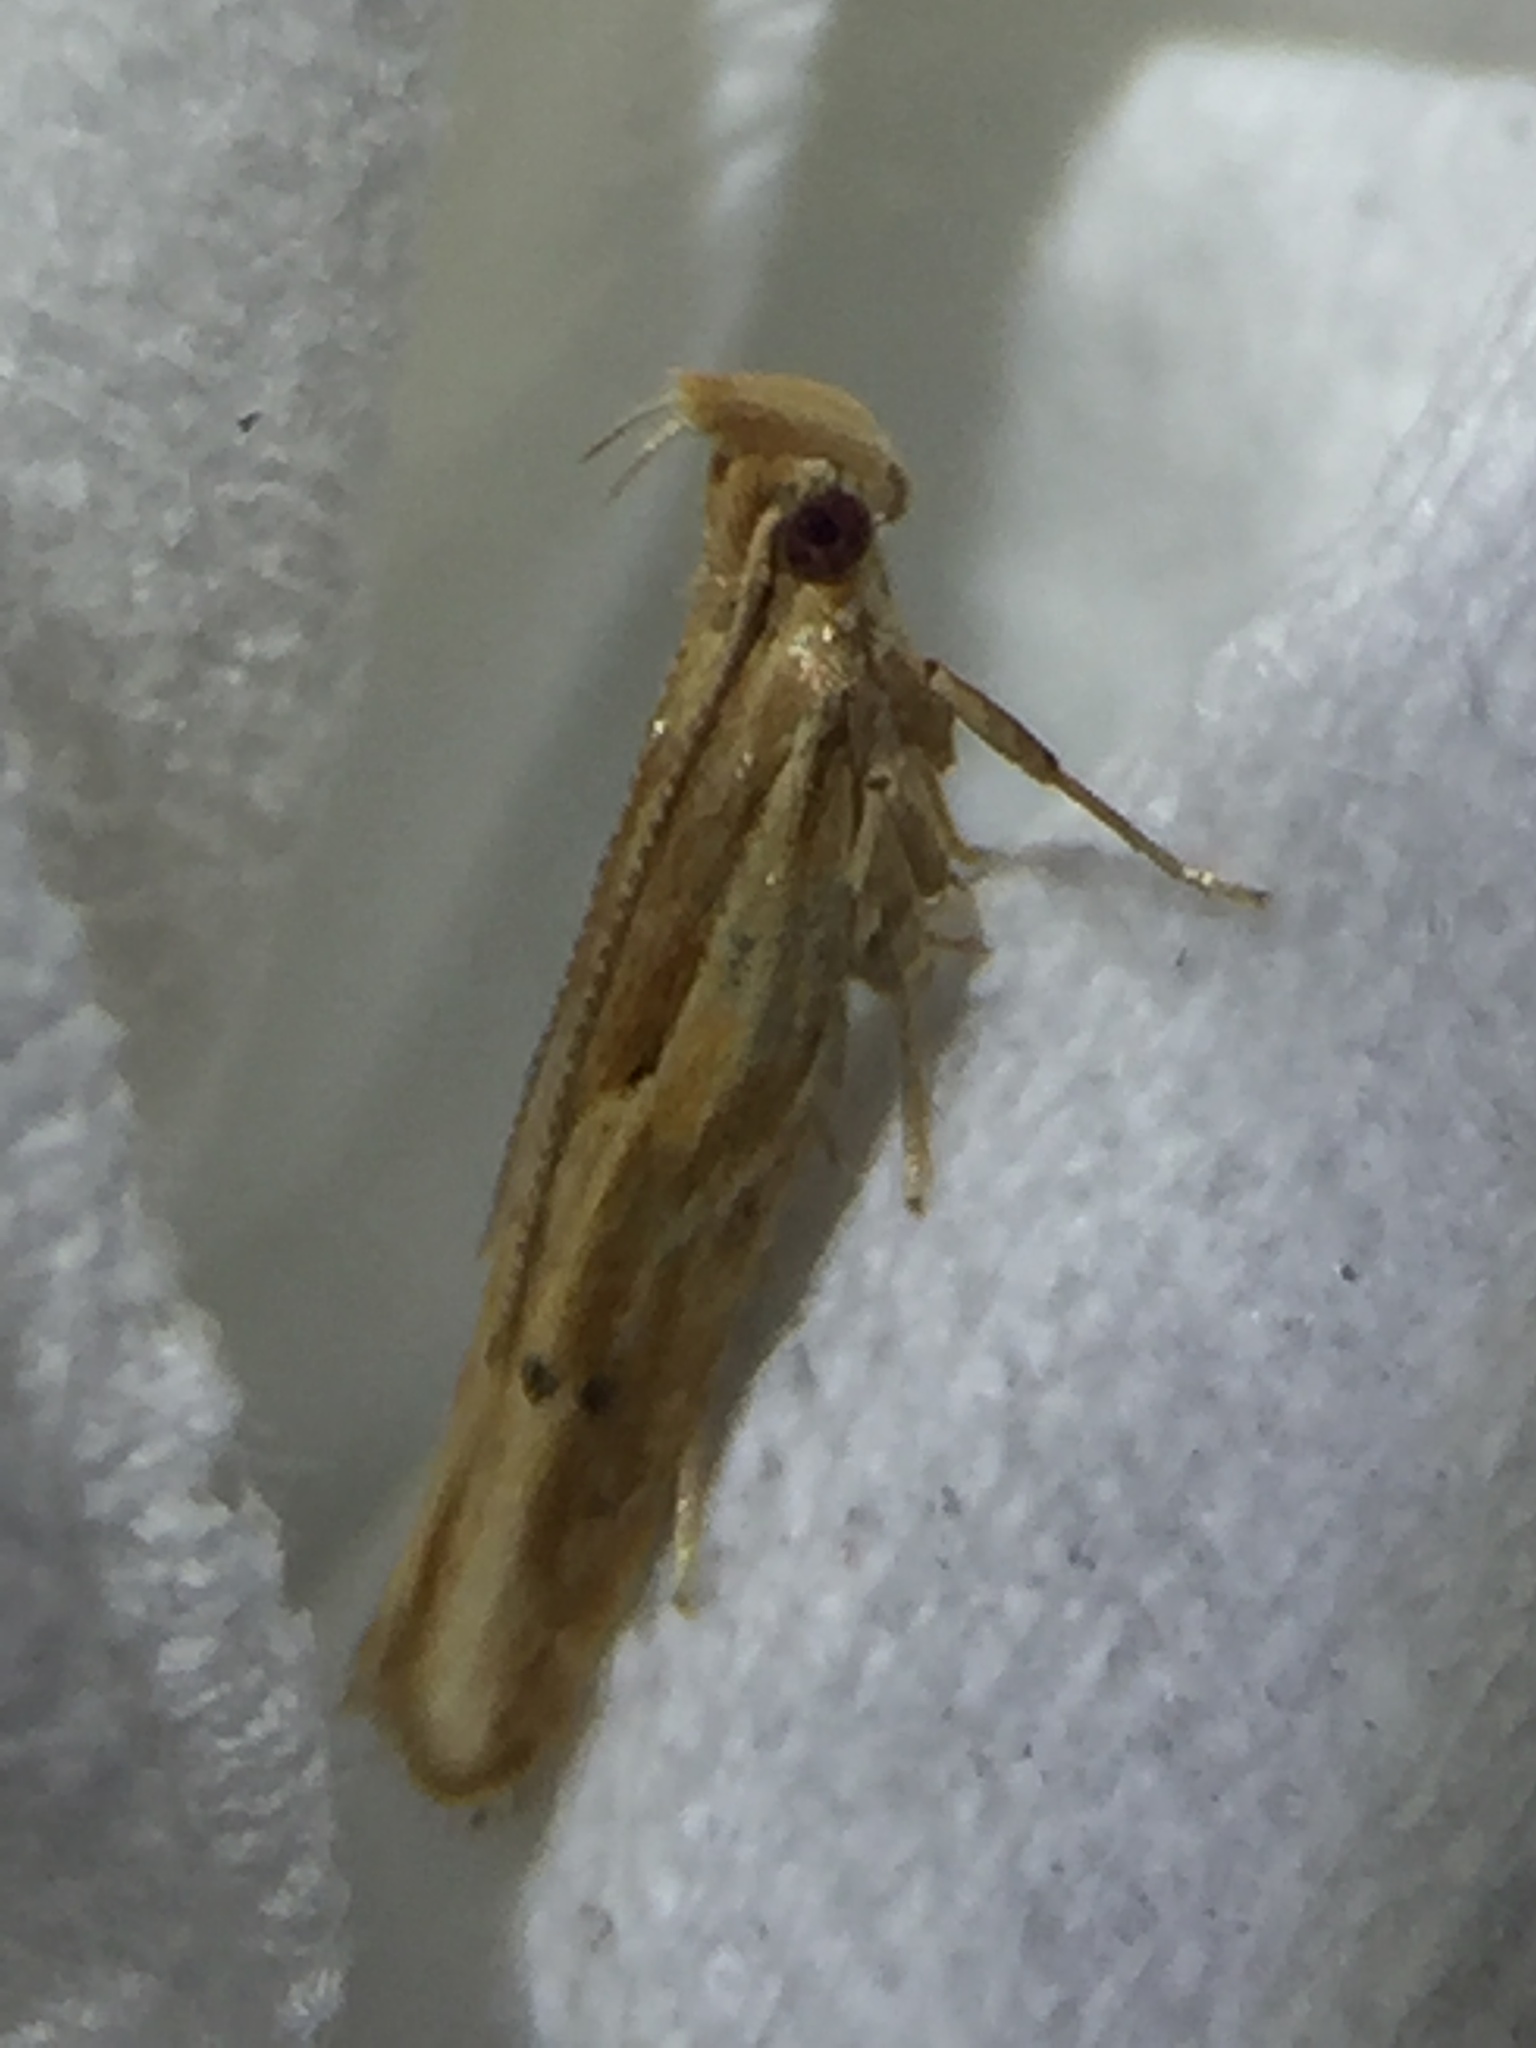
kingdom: Animalia
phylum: Arthropoda
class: Insecta
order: Lepidoptera
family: Depressariidae
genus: Eutorna
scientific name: Eutorna symmorpha
